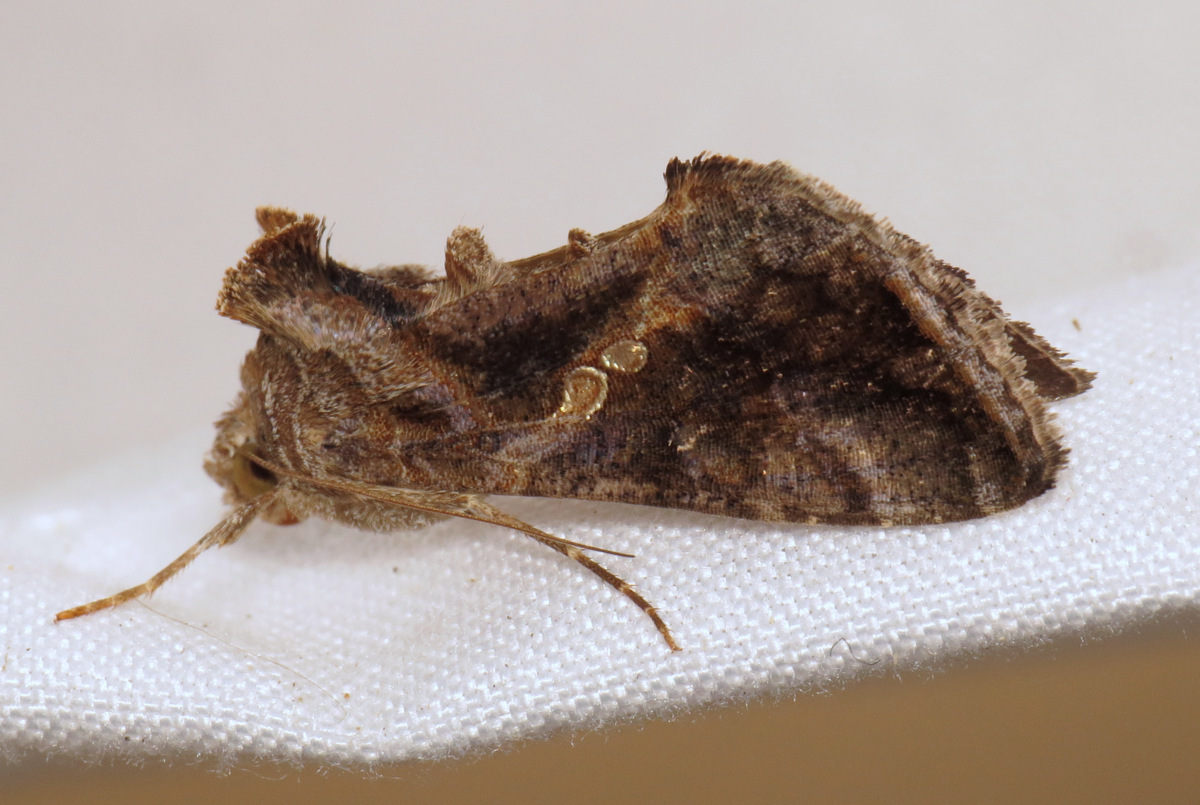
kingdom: Animalia
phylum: Arthropoda
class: Insecta
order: Lepidoptera
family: Noctuidae
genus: Chrysodeixis
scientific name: Chrysodeixis includens
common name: Cutworm moth
